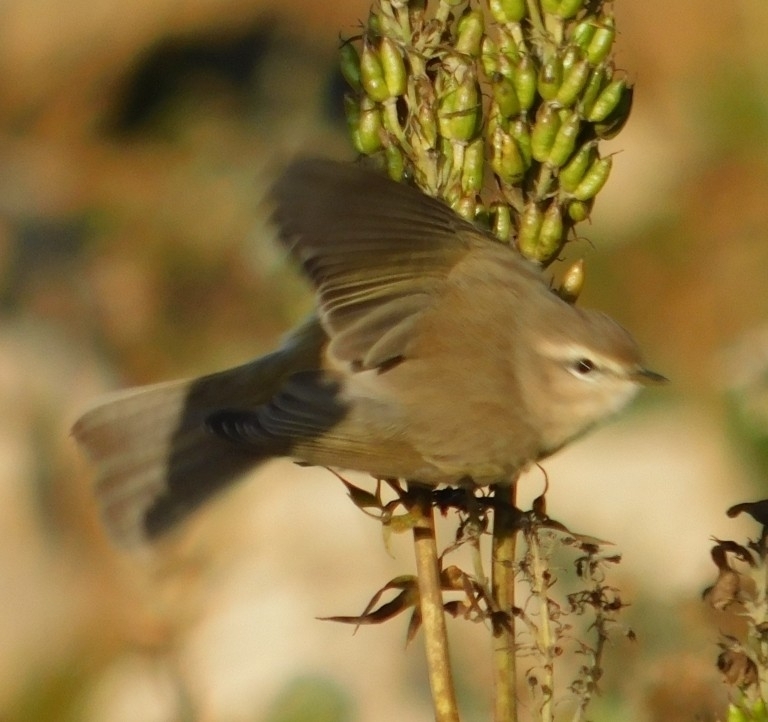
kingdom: Animalia
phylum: Chordata
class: Aves
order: Passeriformes
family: Phylloscopidae
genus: Phylloscopus
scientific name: Phylloscopus collybita
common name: Common chiffchaff
